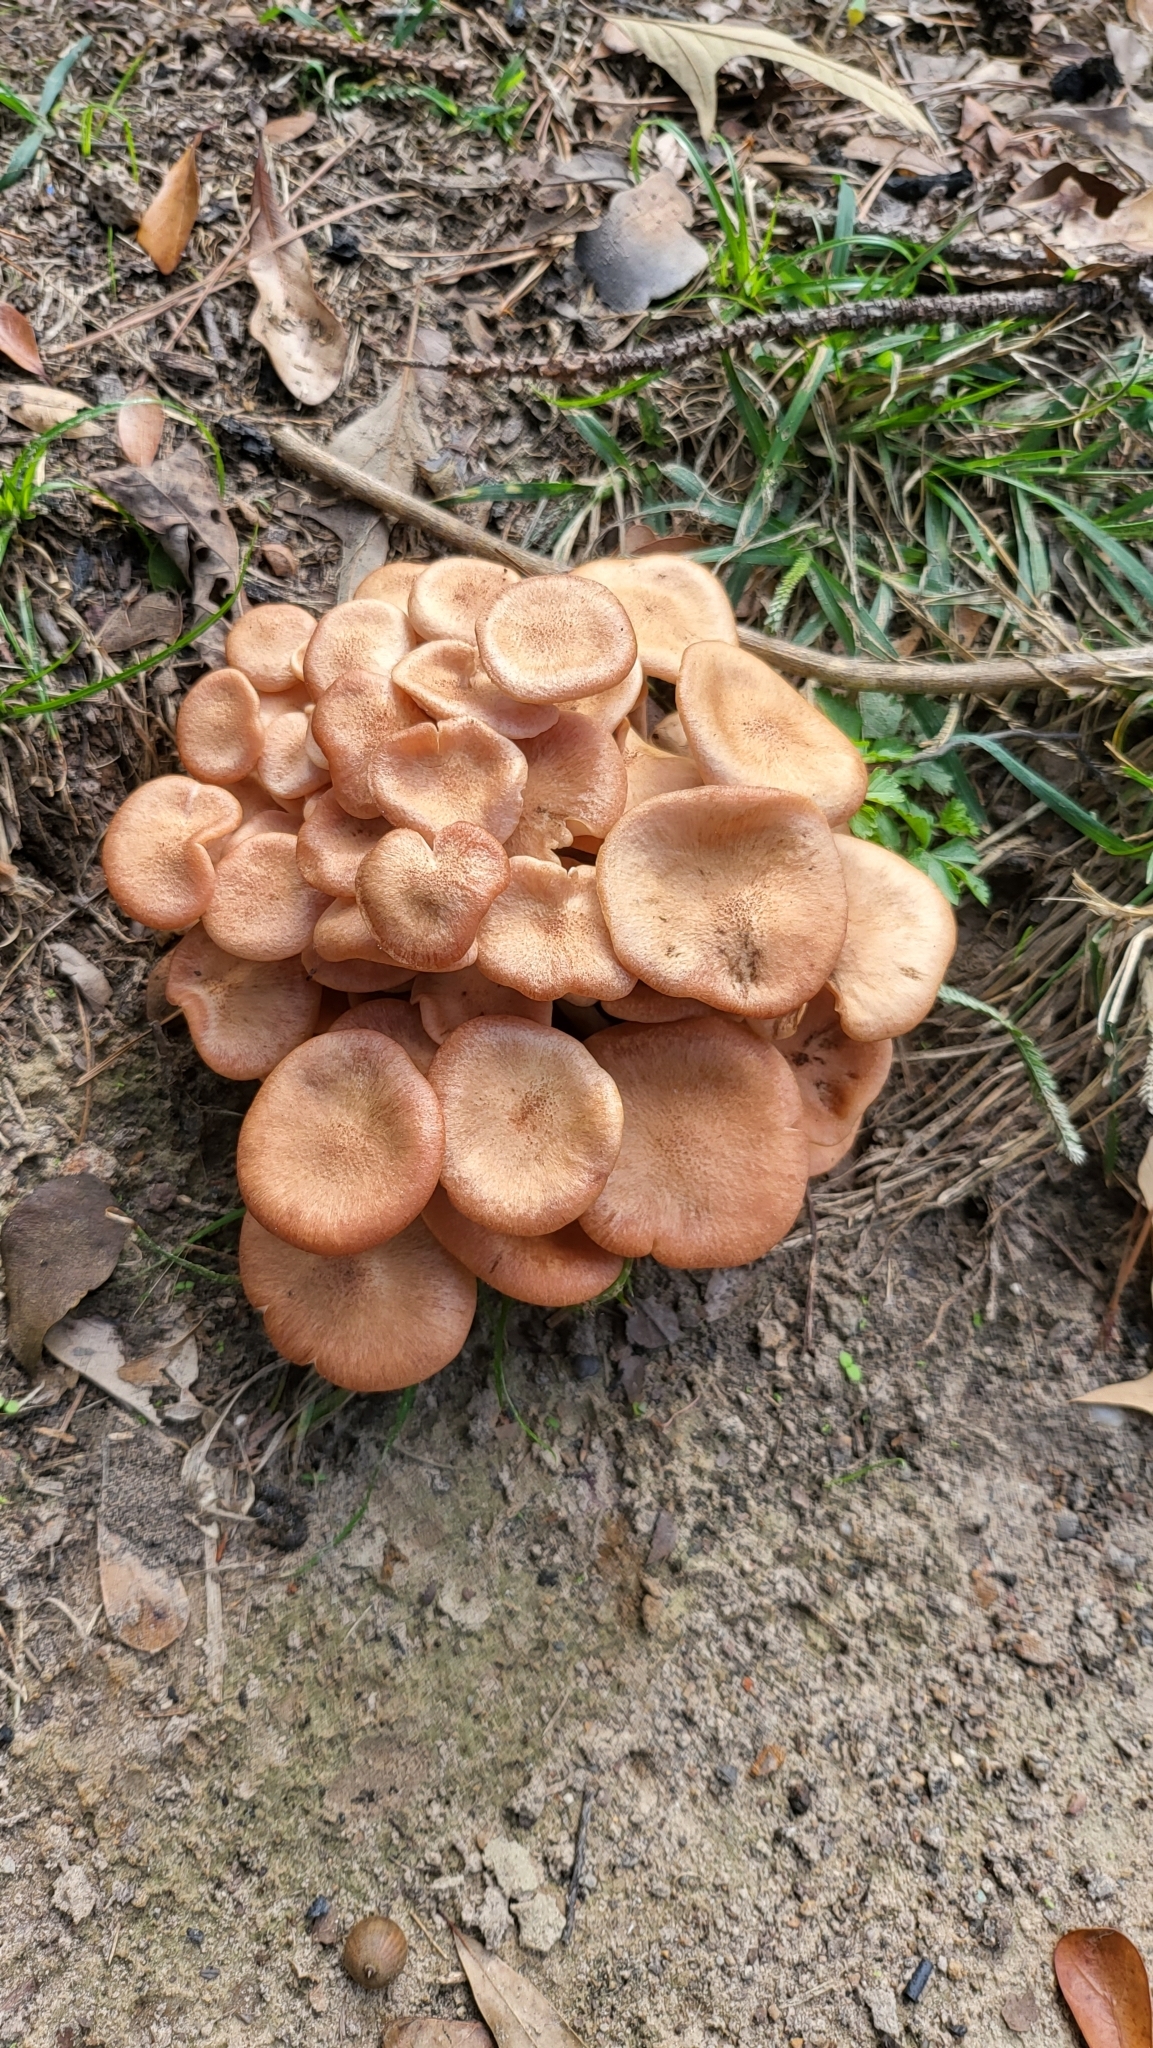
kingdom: Fungi
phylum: Basidiomycota
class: Agaricomycetes
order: Agaricales
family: Physalacriaceae
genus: Desarmillaria
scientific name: Desarmillaria caespitosa
